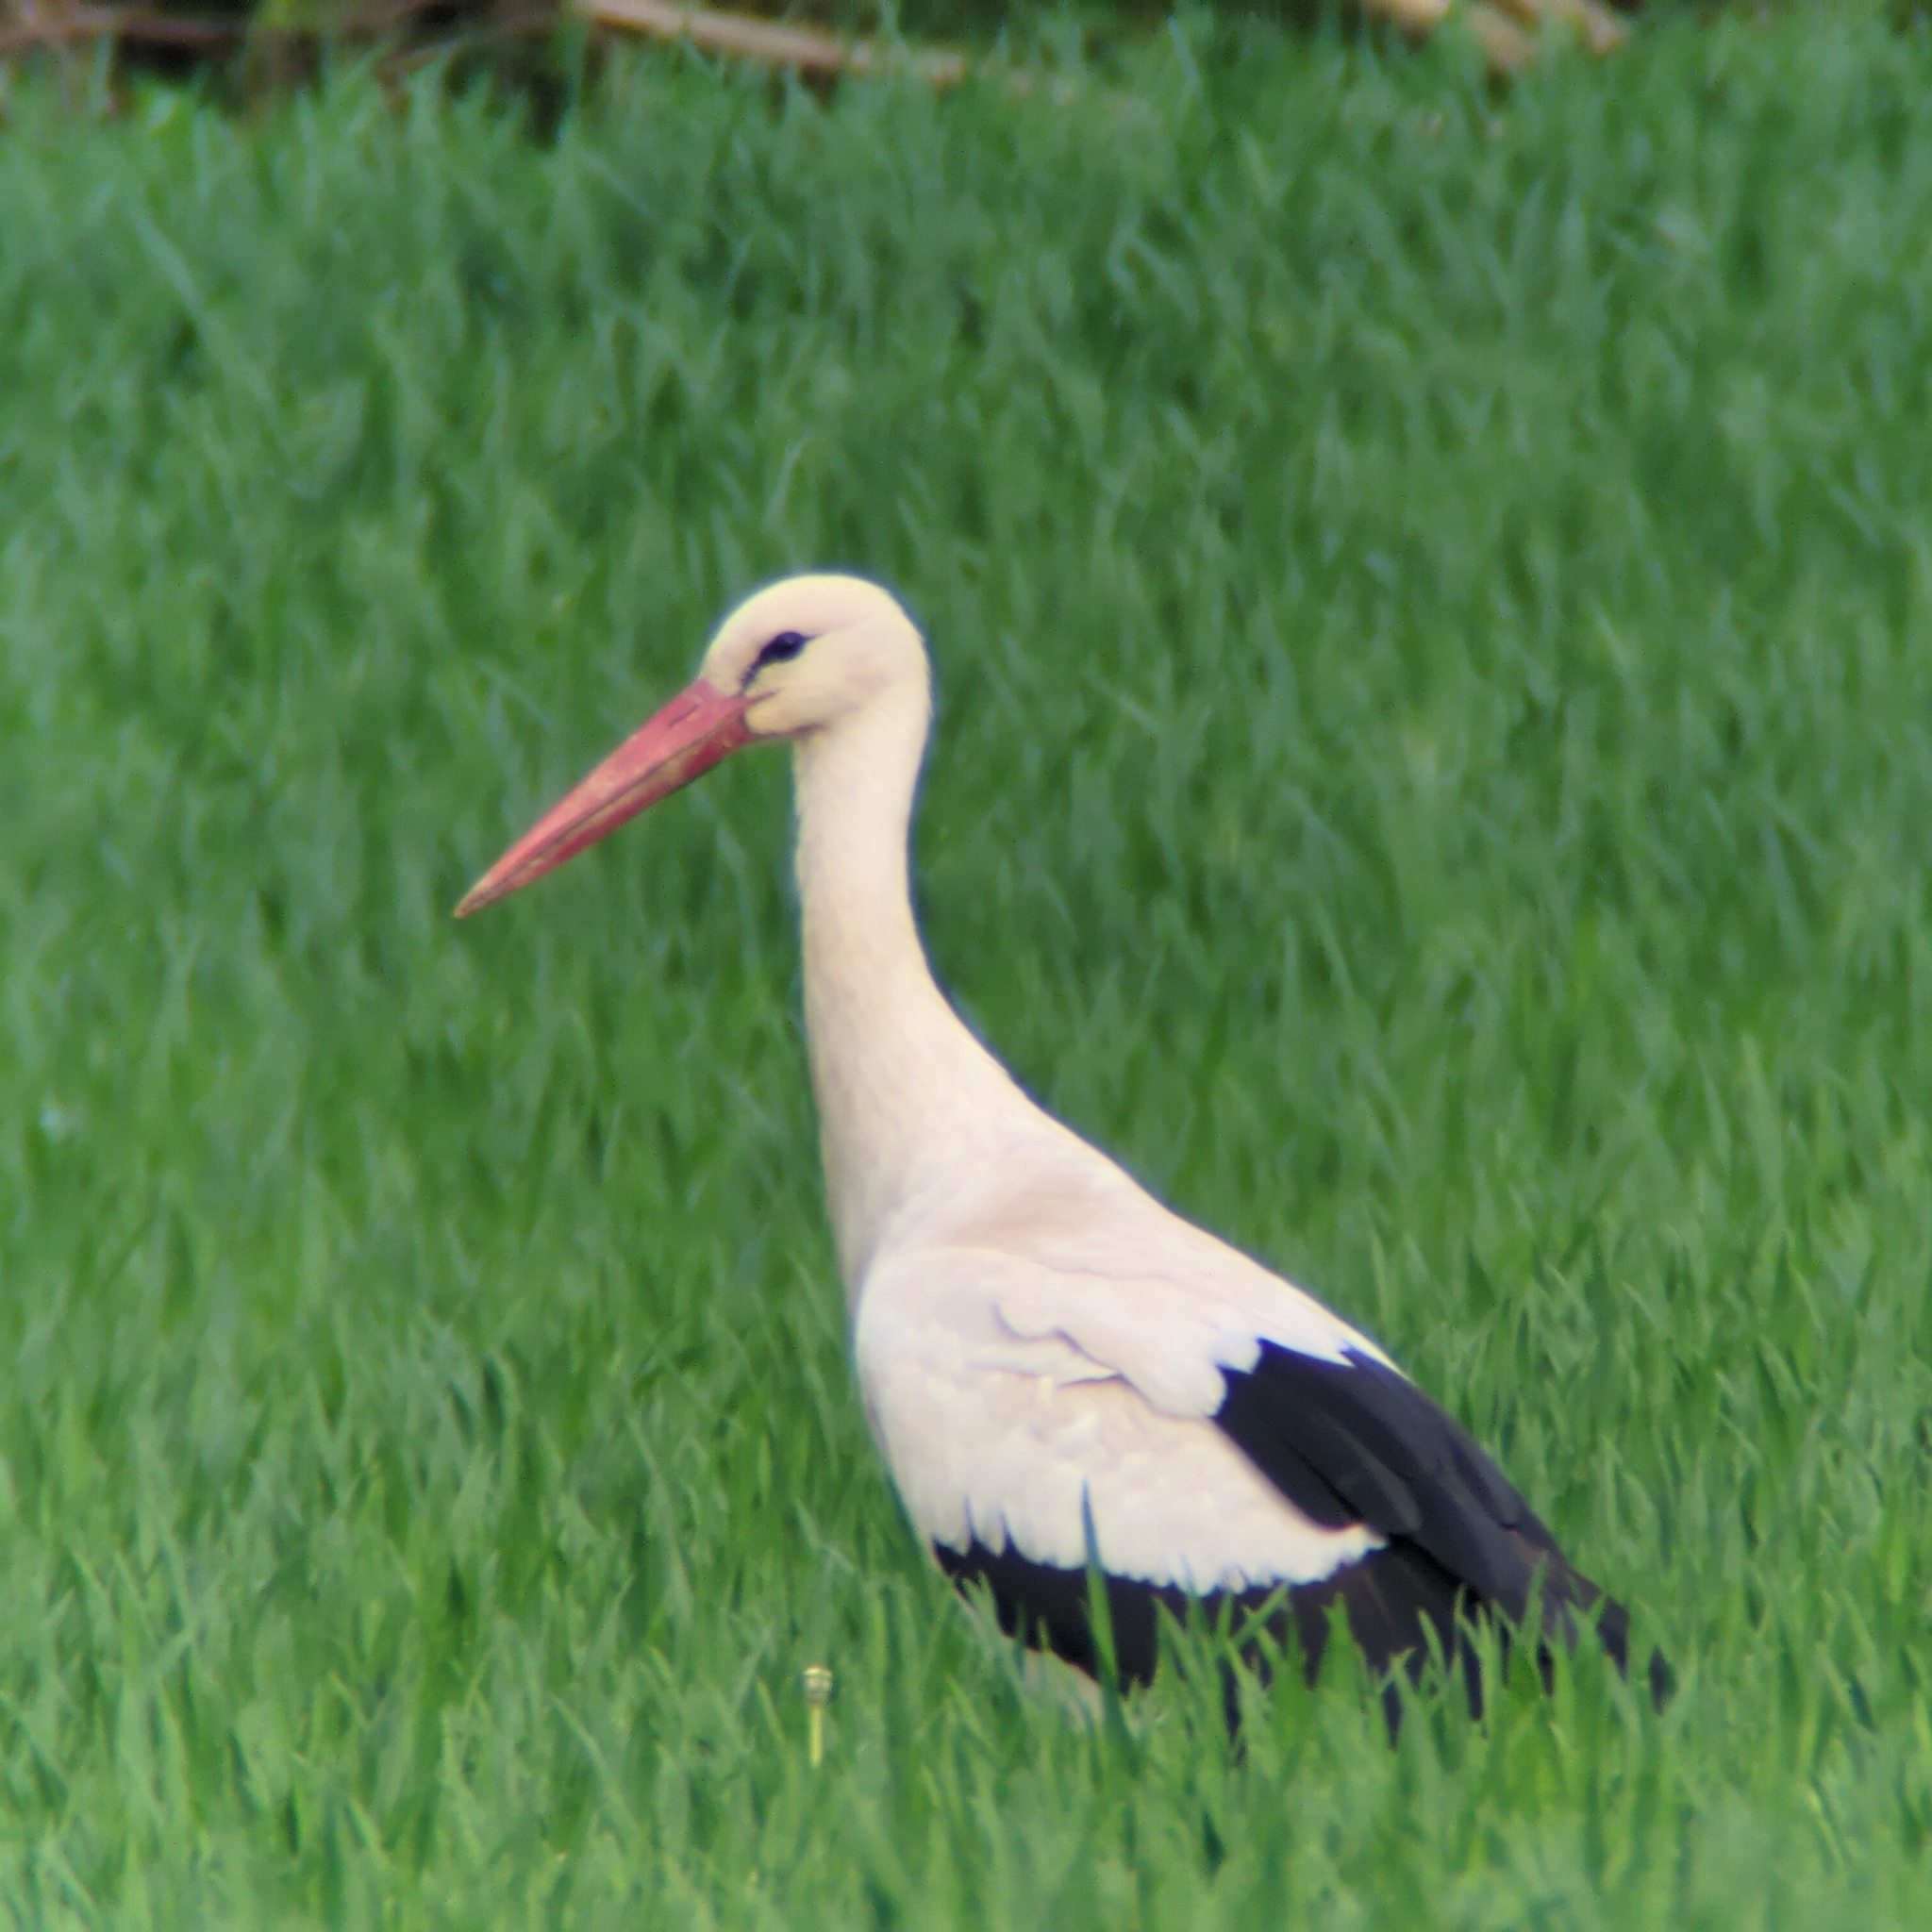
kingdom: Animalia
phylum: Chordata
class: Aves
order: Ciconiiformes
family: Ciconiidae
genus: Ciconia
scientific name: Ciconia ciconia
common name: White stork
